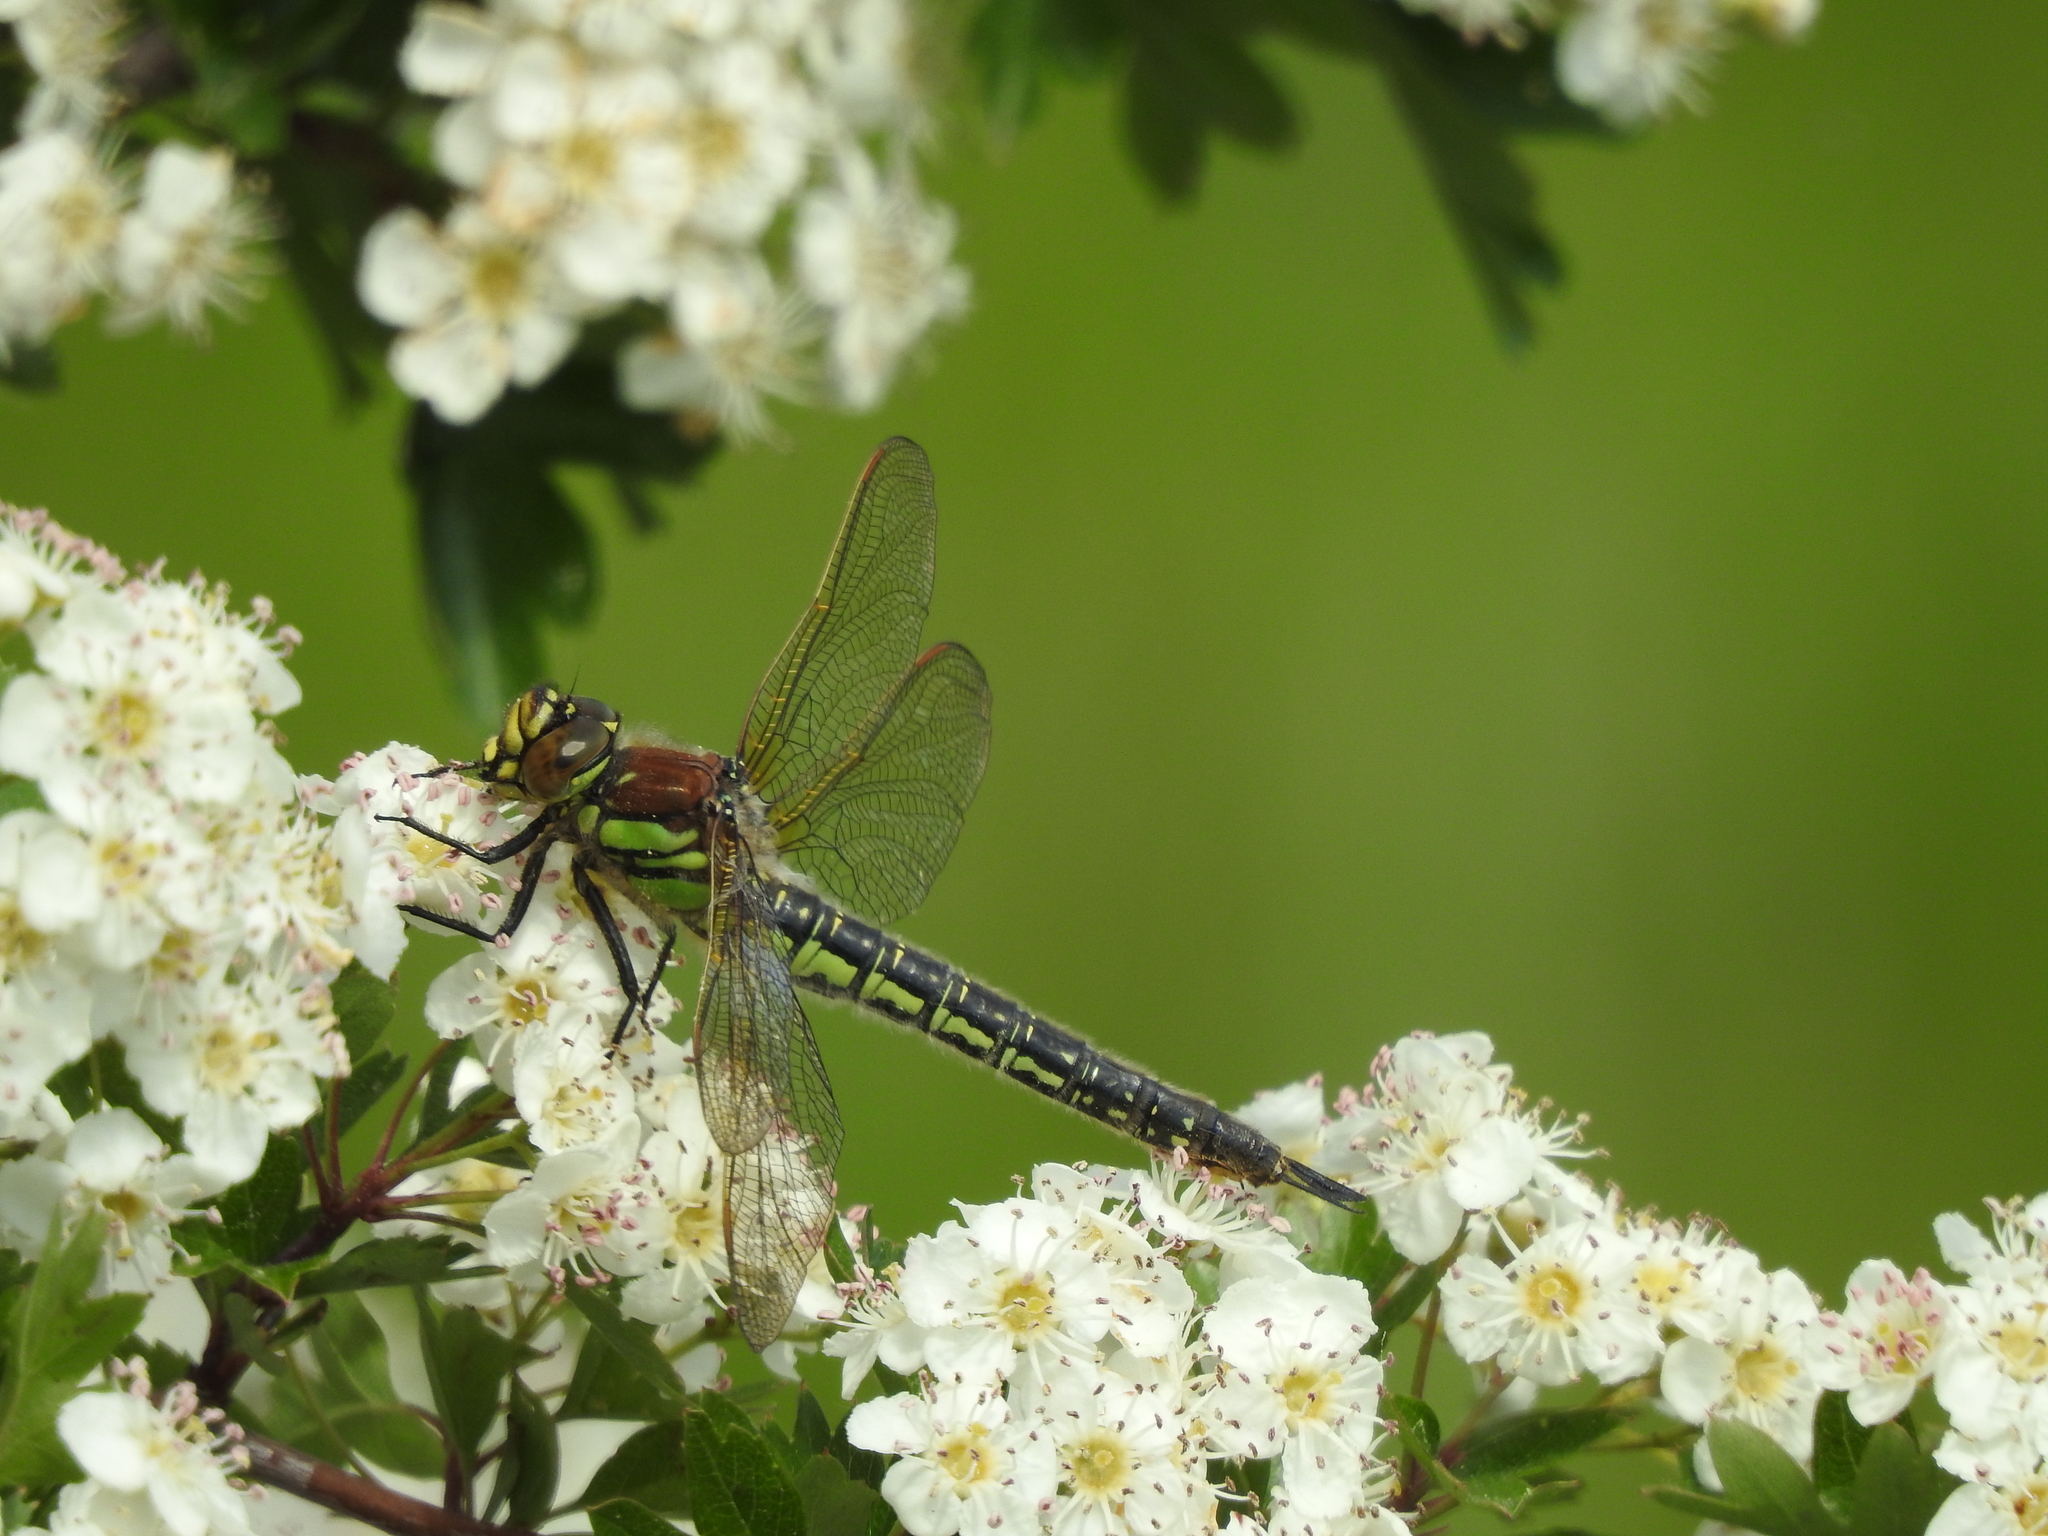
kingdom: Animalia
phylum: Arthropoda
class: Insecta
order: Odonata
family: Aeshnidae
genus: Brachytron
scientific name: Brachytron pratense
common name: Hairy hawker
